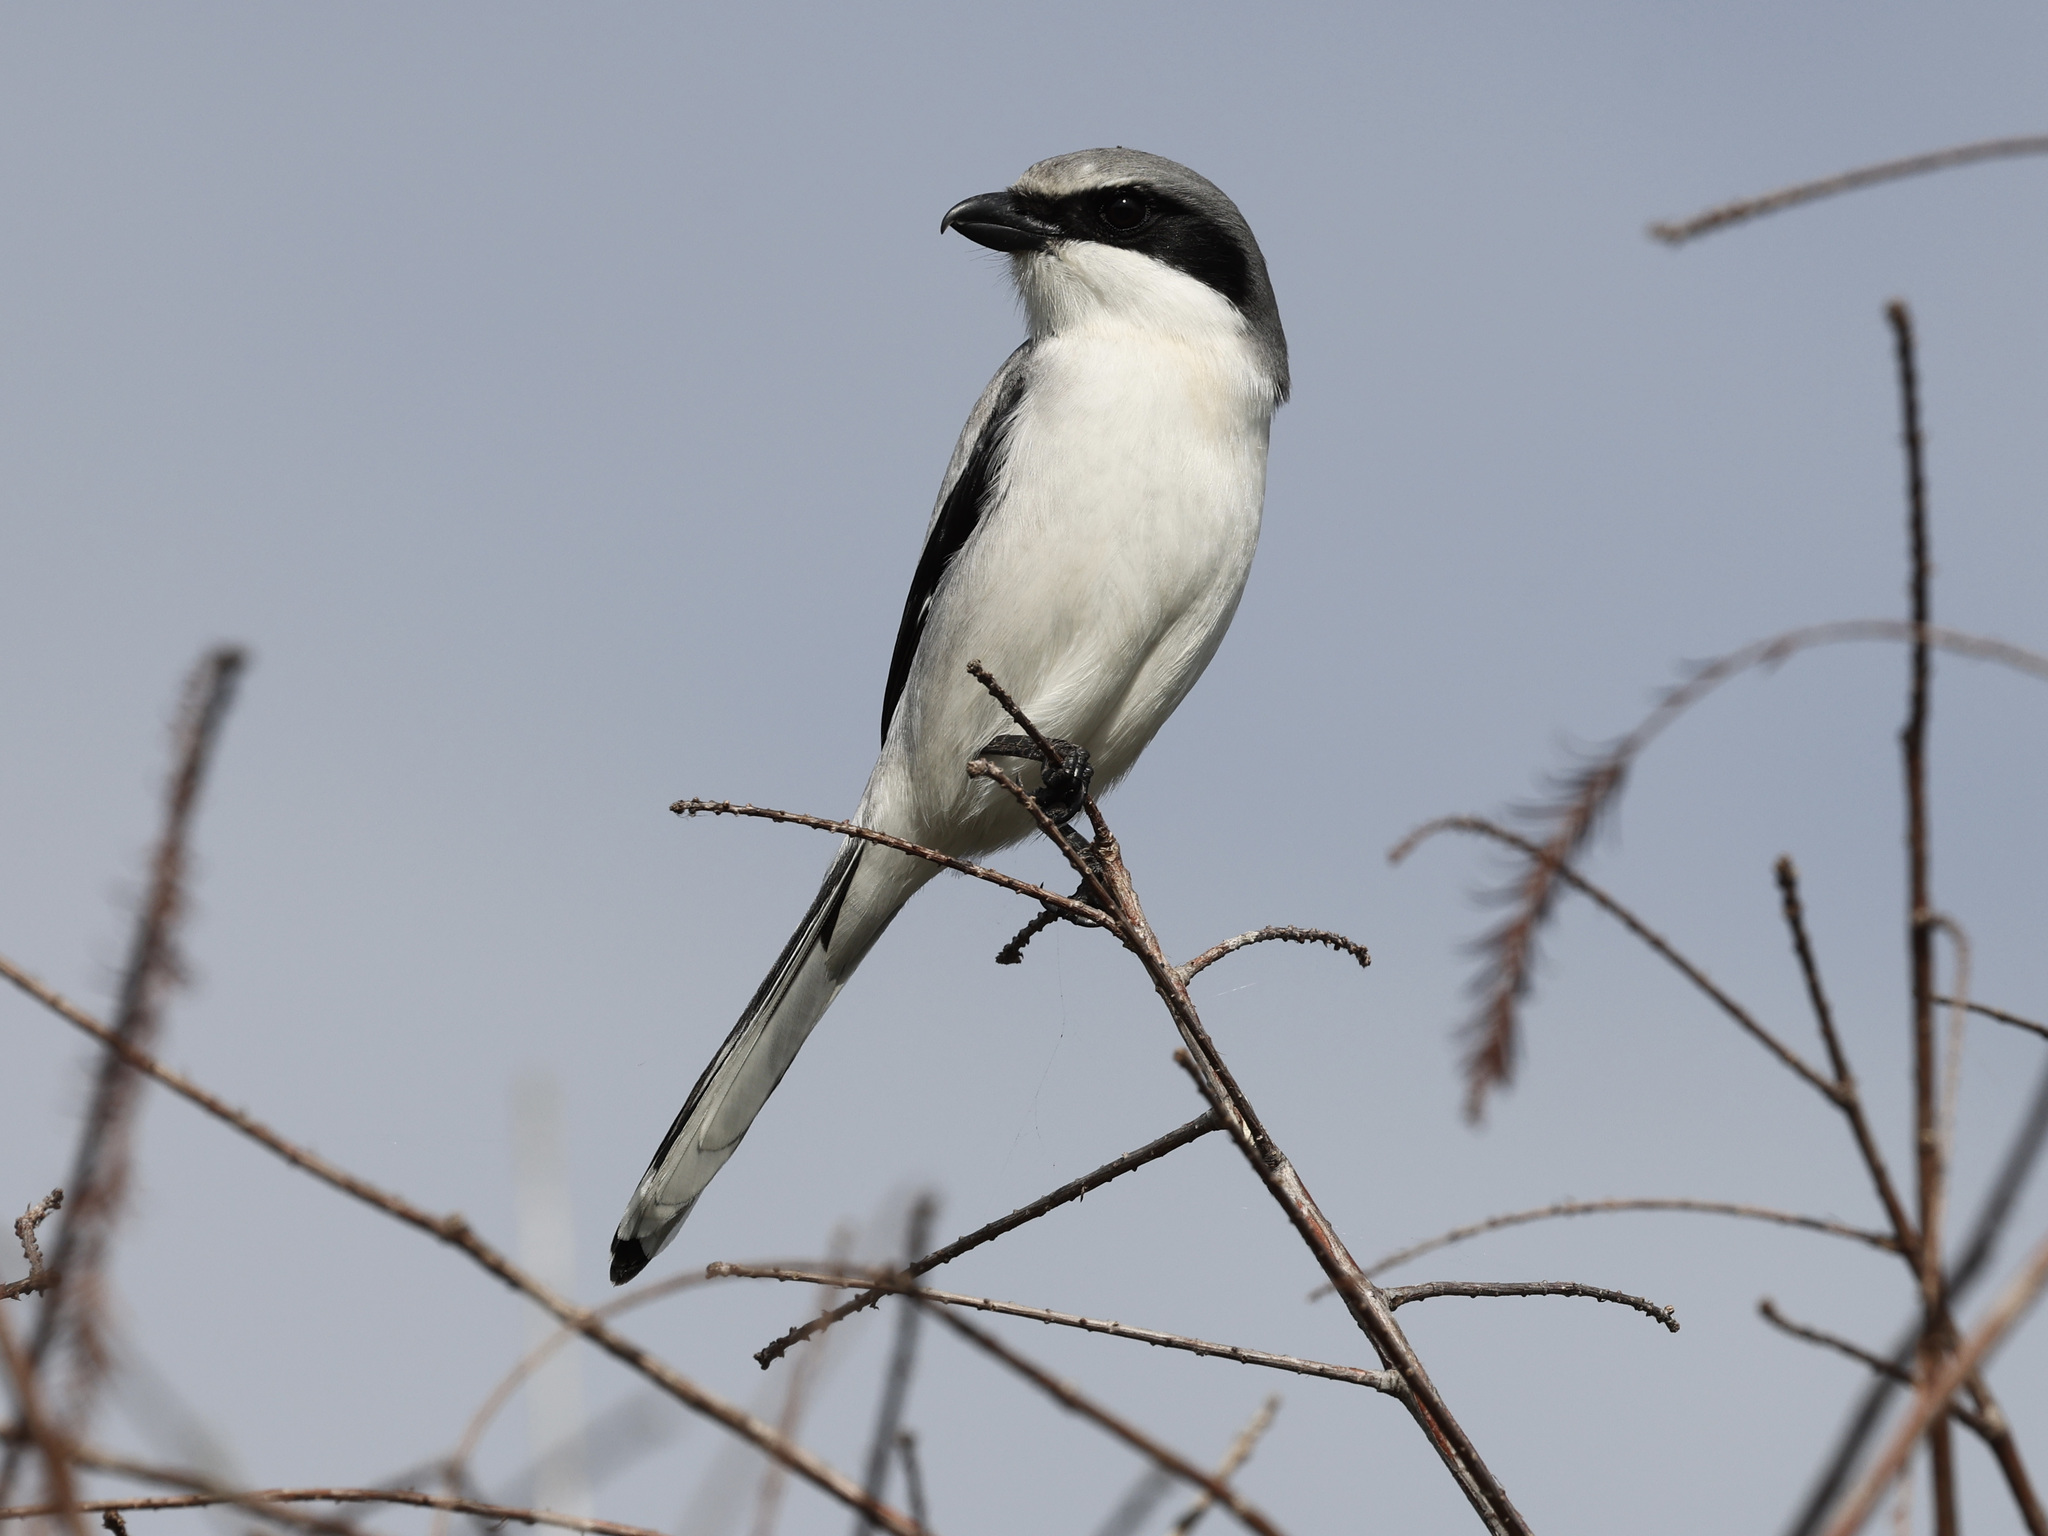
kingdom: Animalia
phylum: Chordata
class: Aves
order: Passeriformes
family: Laniidae
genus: Lanius
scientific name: Lanius ludovicianus
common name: Loggerhead shrike
